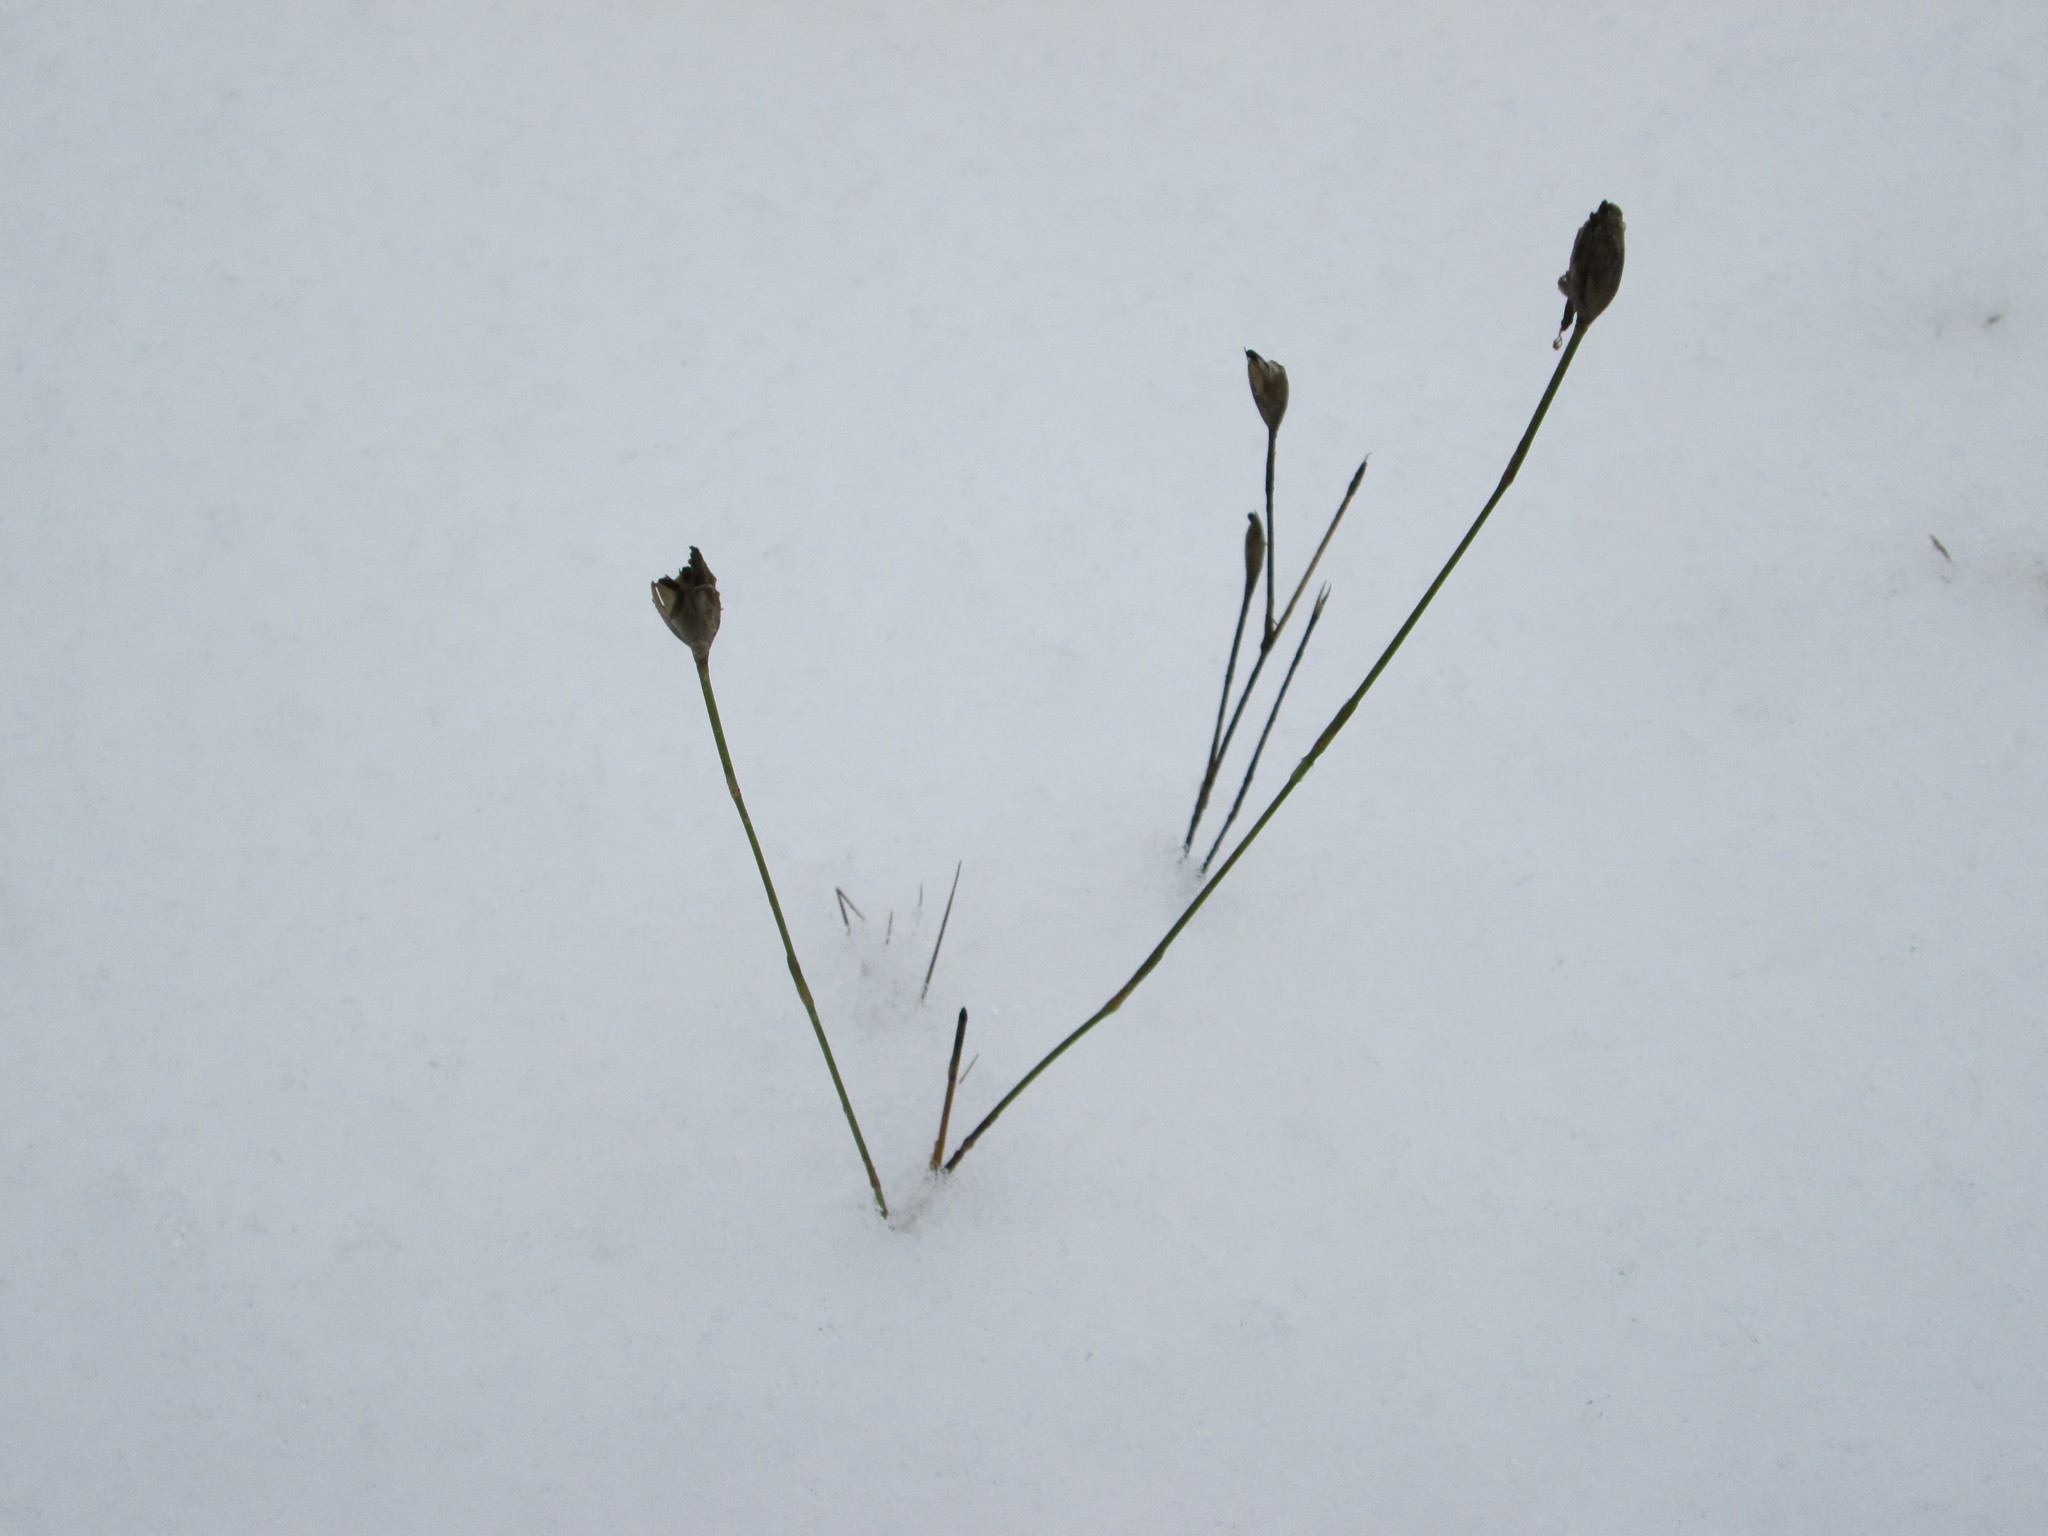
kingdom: Plantae
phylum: Tracheophyta
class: Magnoliopsida
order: Caryophyllales
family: Caryophyllaceae
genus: Petrorhagia
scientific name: Petrorhagia prolifera
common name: Proliferous pink
